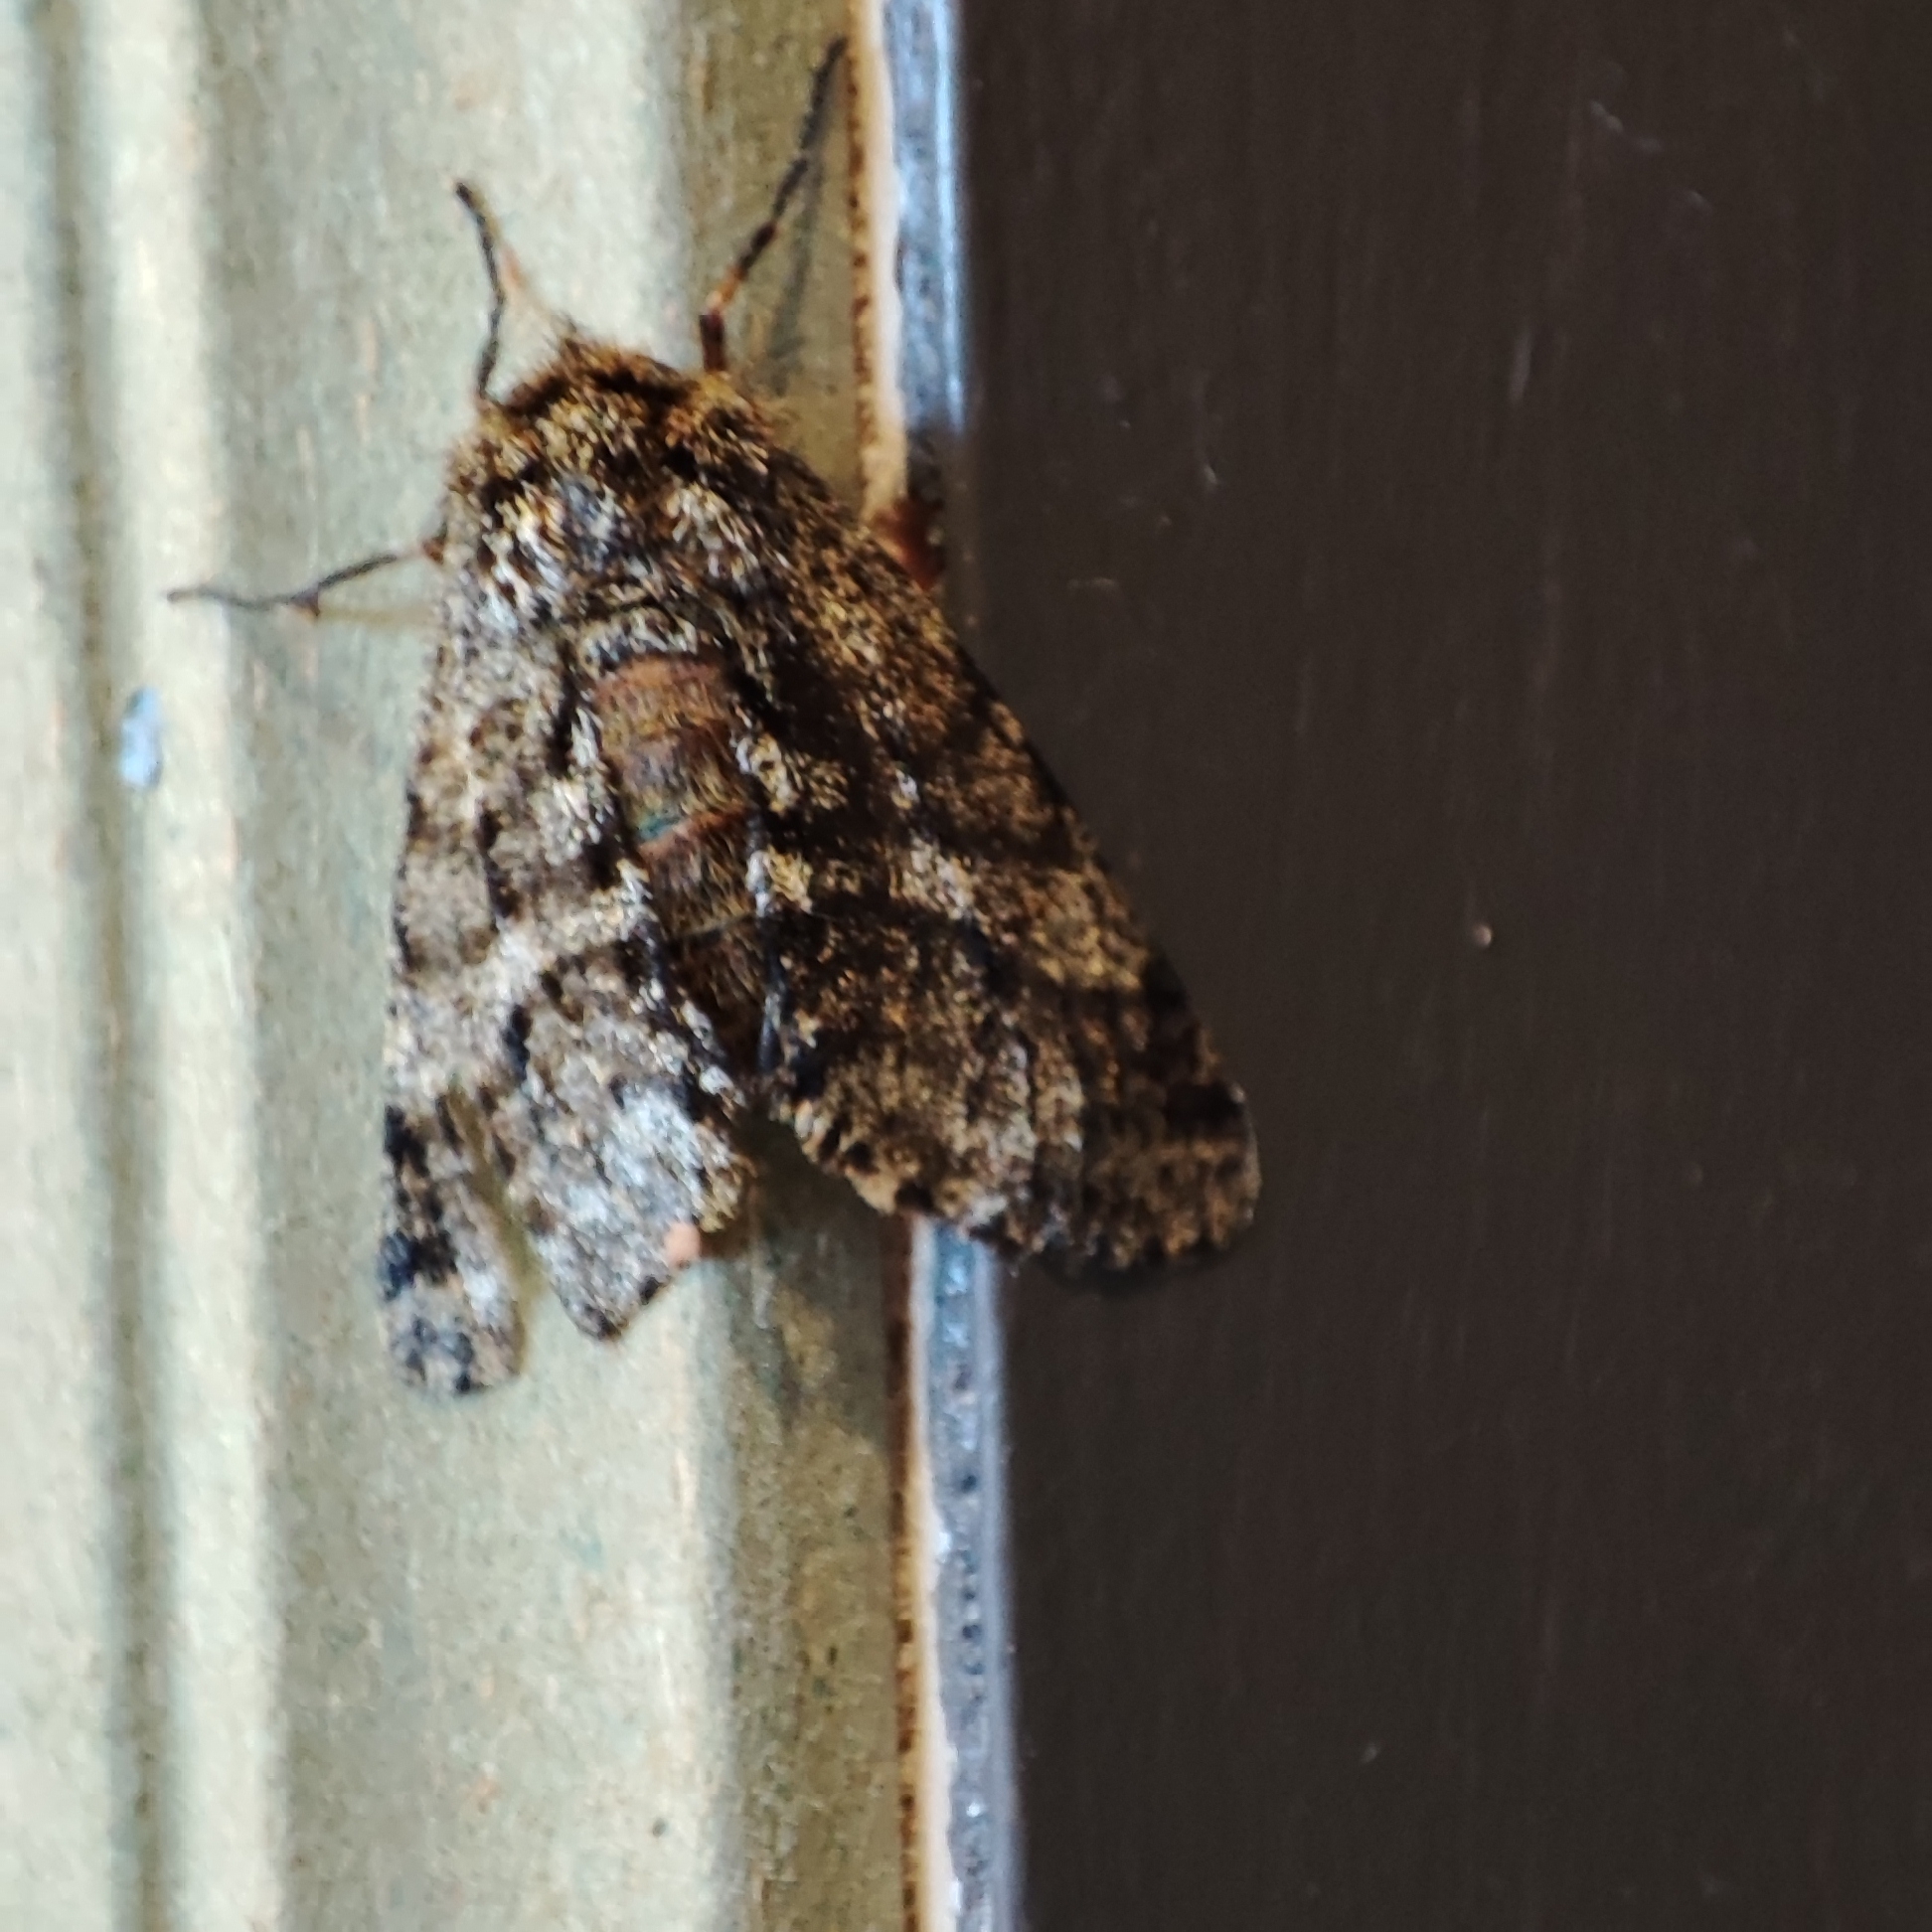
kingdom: Animalia
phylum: Arthropoda
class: Insecta
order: Lepidoptera
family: Geometridae
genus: Lycia
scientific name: Lycia hirtaria
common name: Brindled beauty
